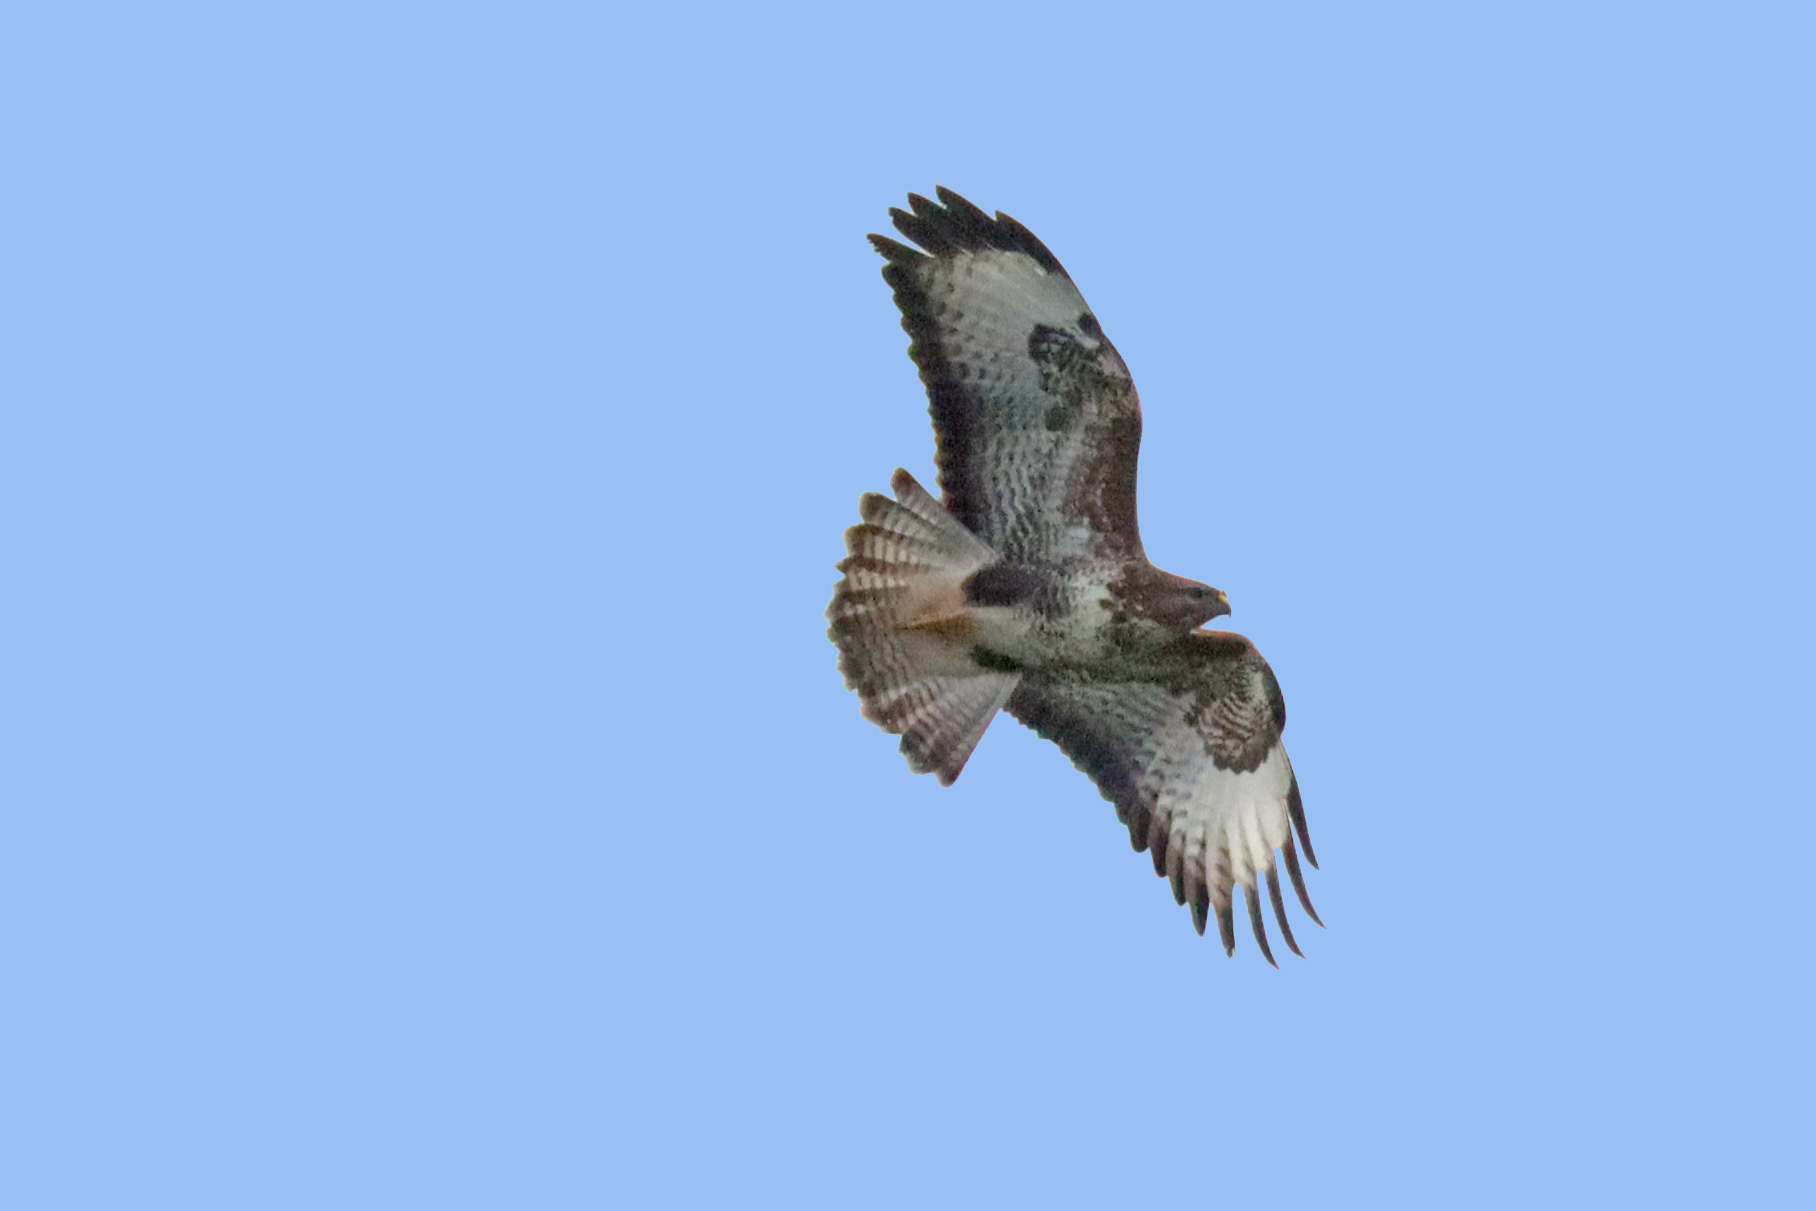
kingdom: Animalia
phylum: Chordata
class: Aves
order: Accipitriformes
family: Accipitridae
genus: Buteo
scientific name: Buteo buteo
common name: Common buzzard
